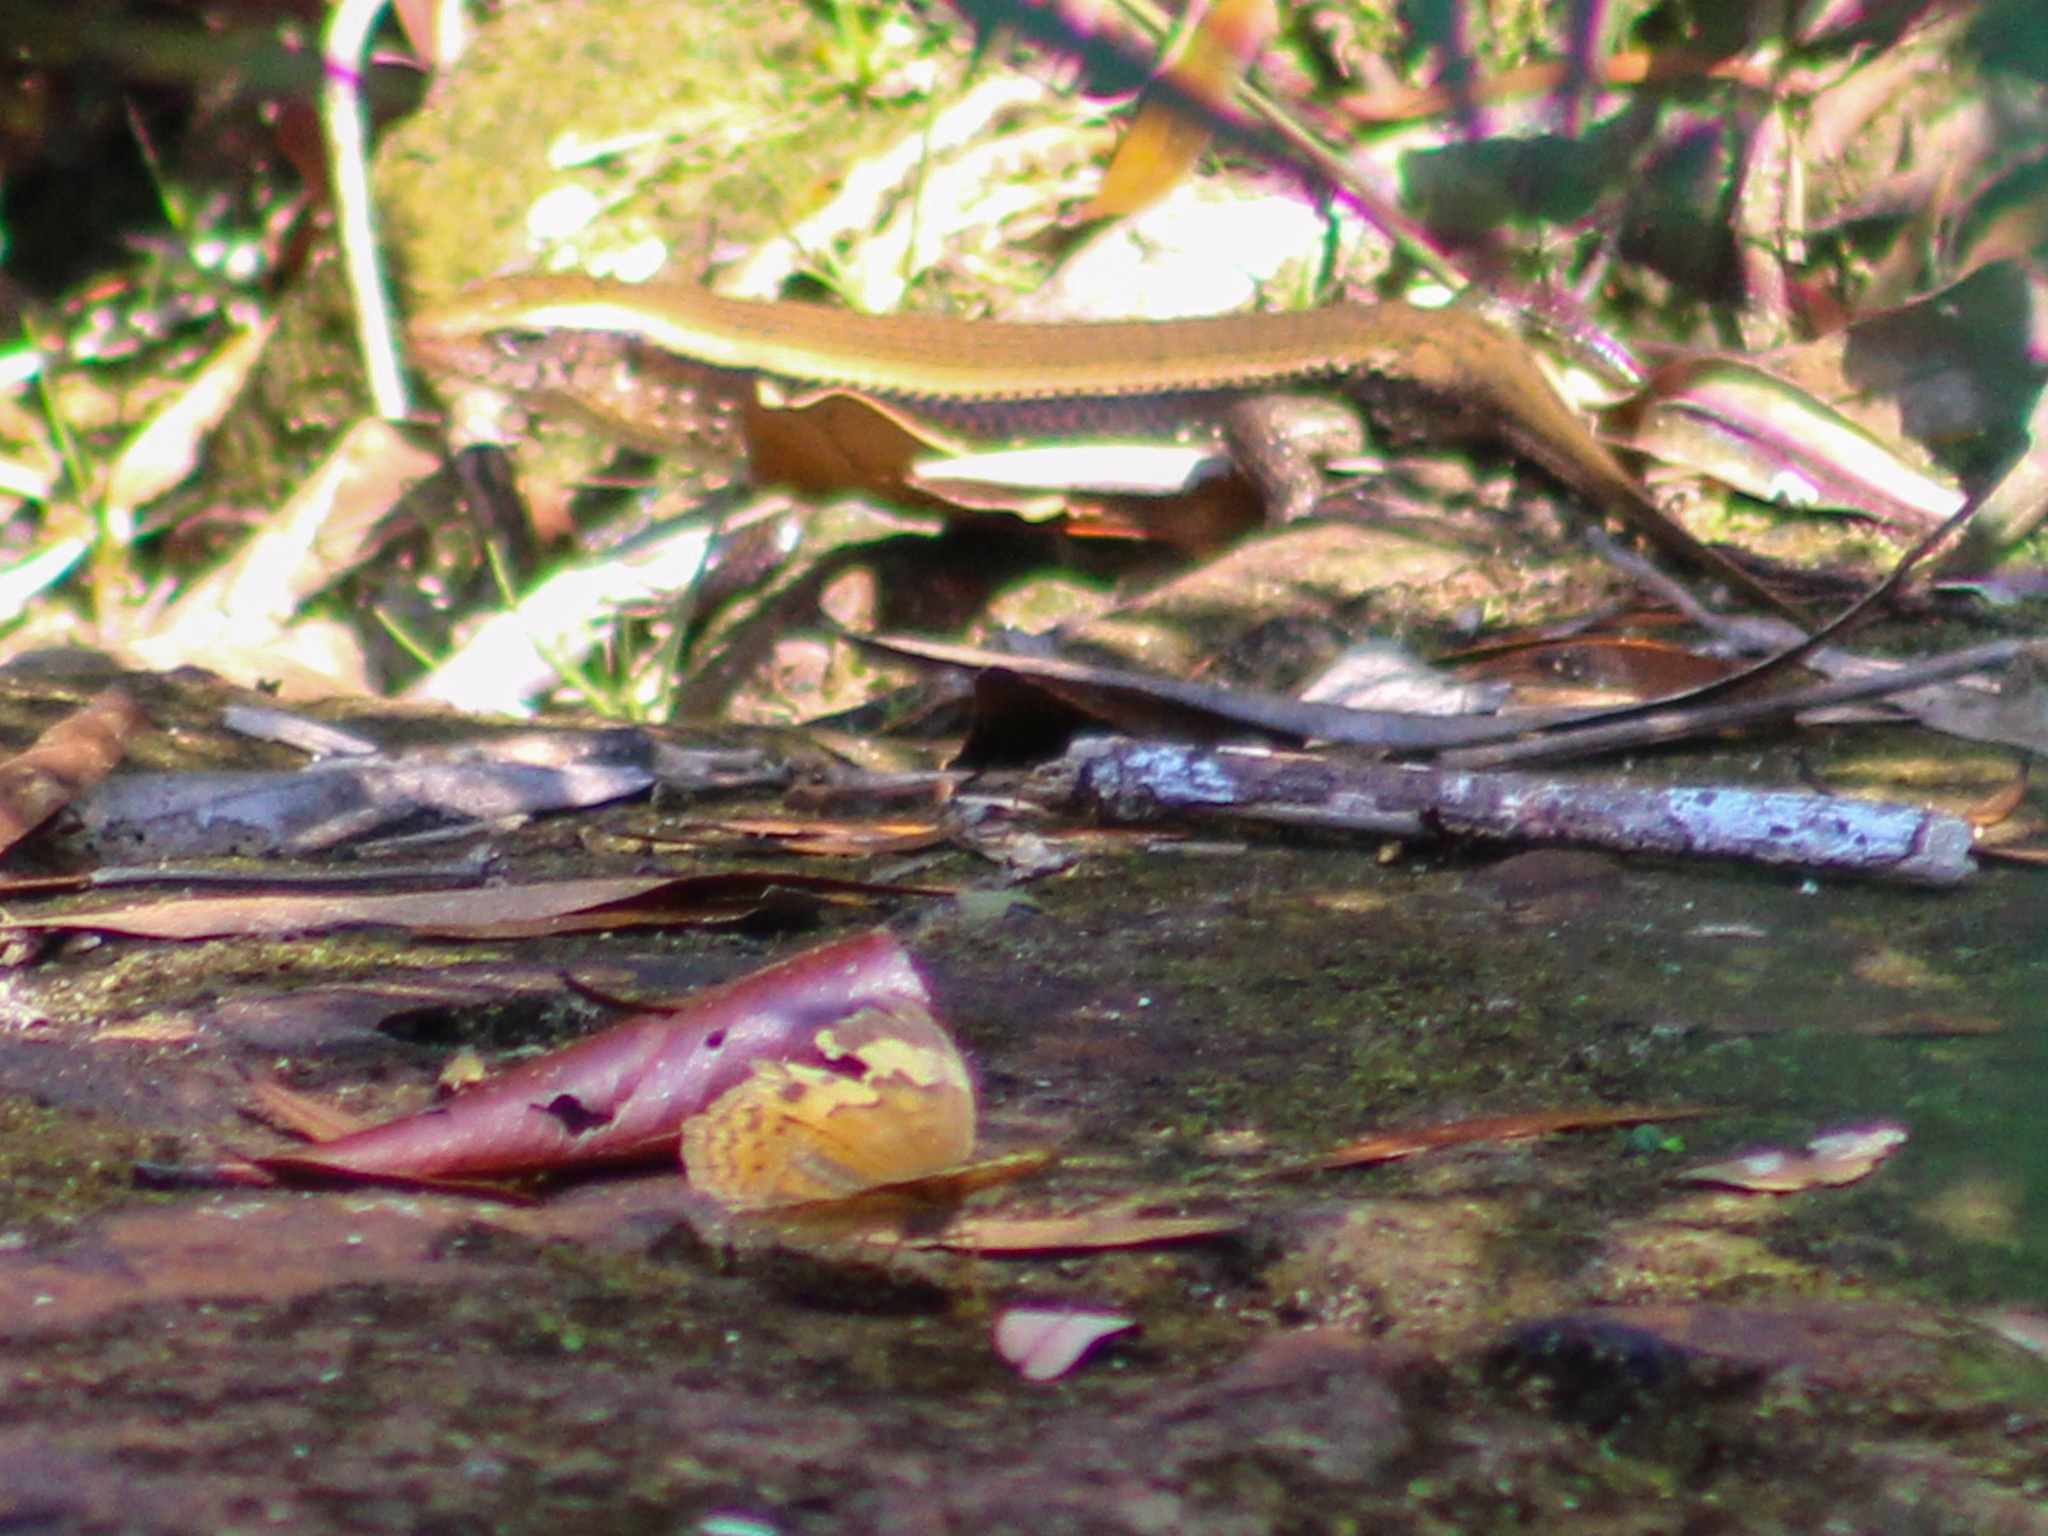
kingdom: Animalia
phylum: Arthropoda
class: Insecta
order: Lepidoptera
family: Nymphalidae
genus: Cupha
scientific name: Cupha erymanthis
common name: Rustic
